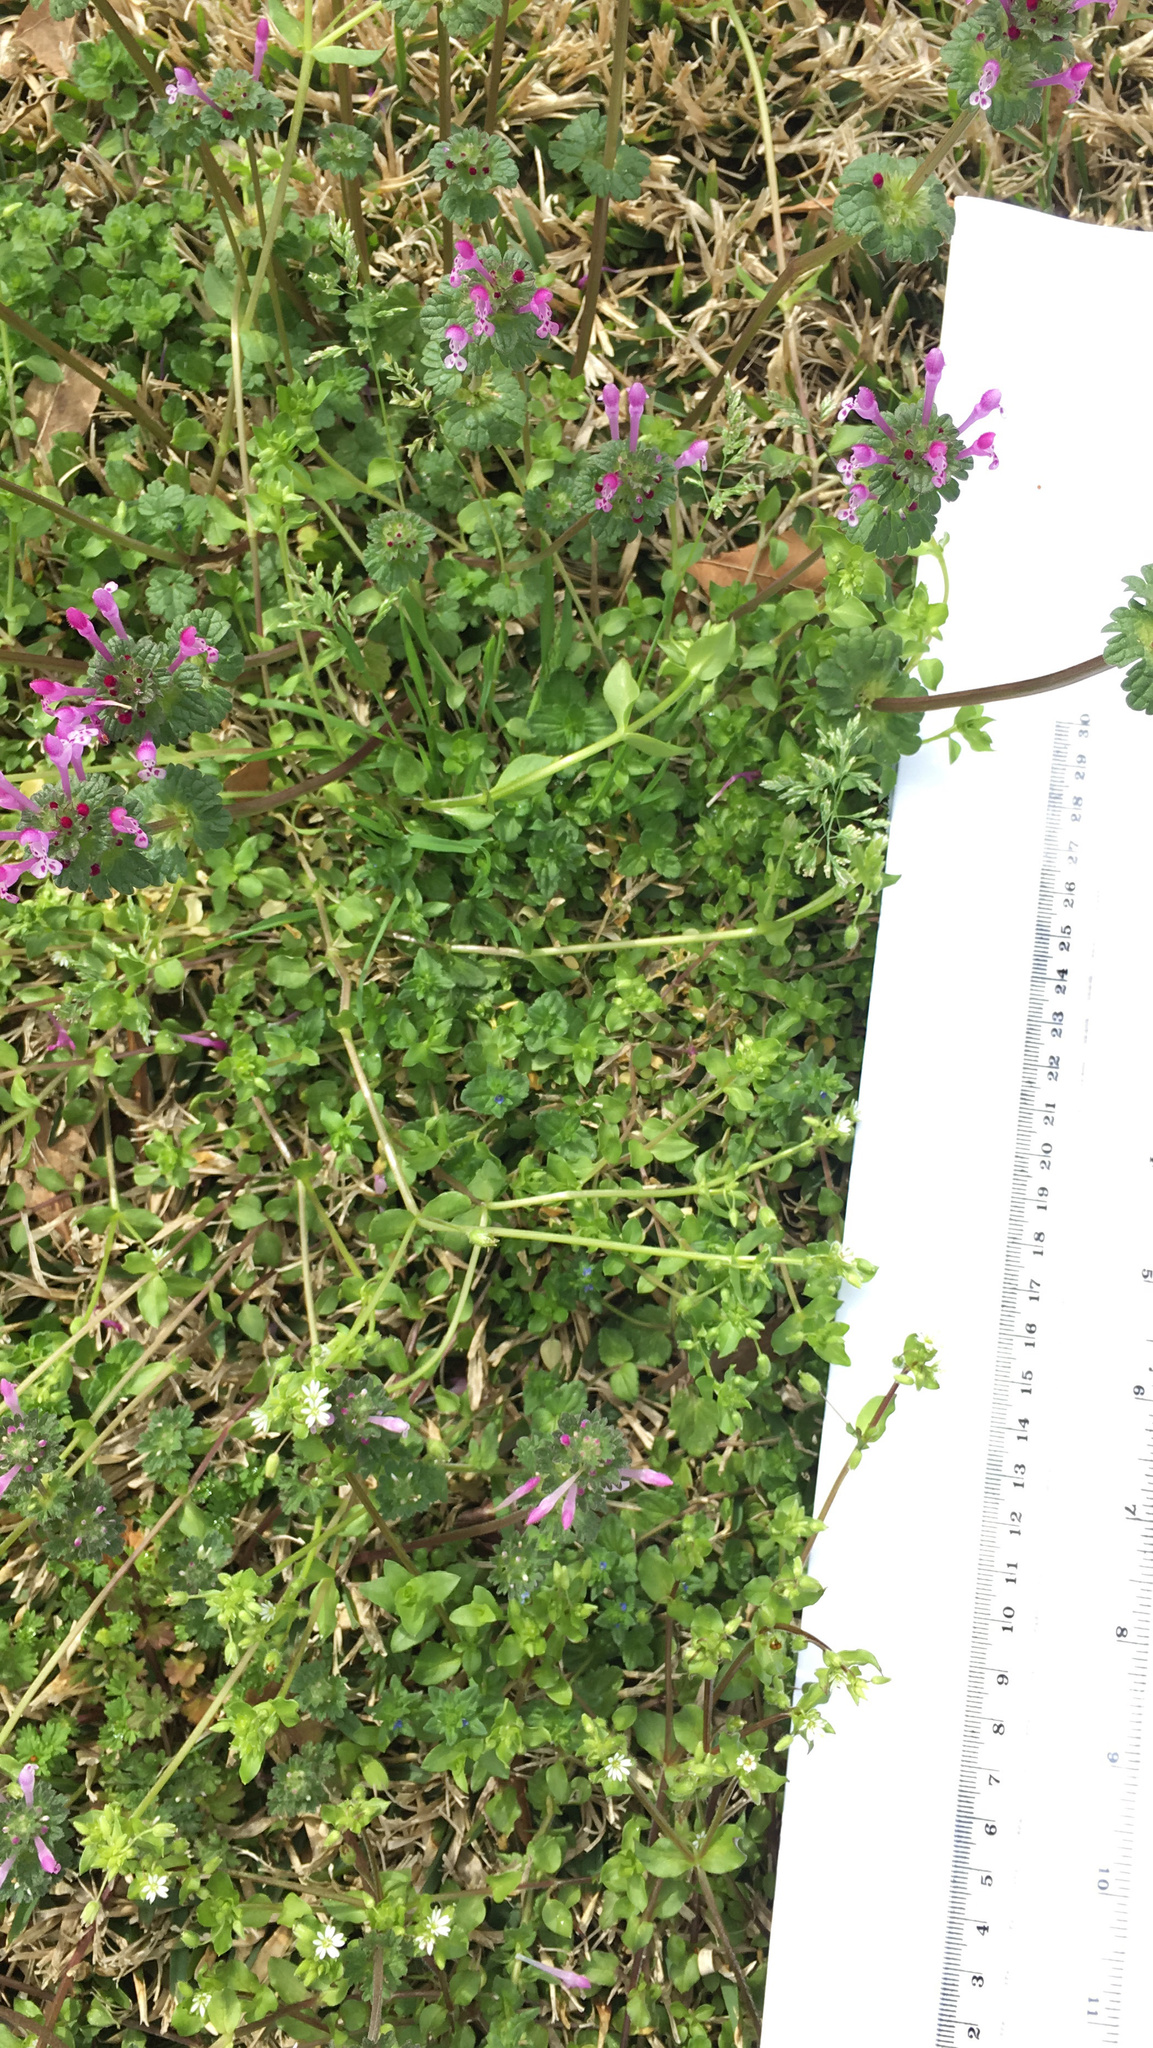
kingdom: Plantae
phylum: Tracheophyta
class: Magnoliopsida
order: Lamiales
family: Lamiaceae
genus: Lamium
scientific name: Lamium amplexicaule
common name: Henbit dead-nettle
